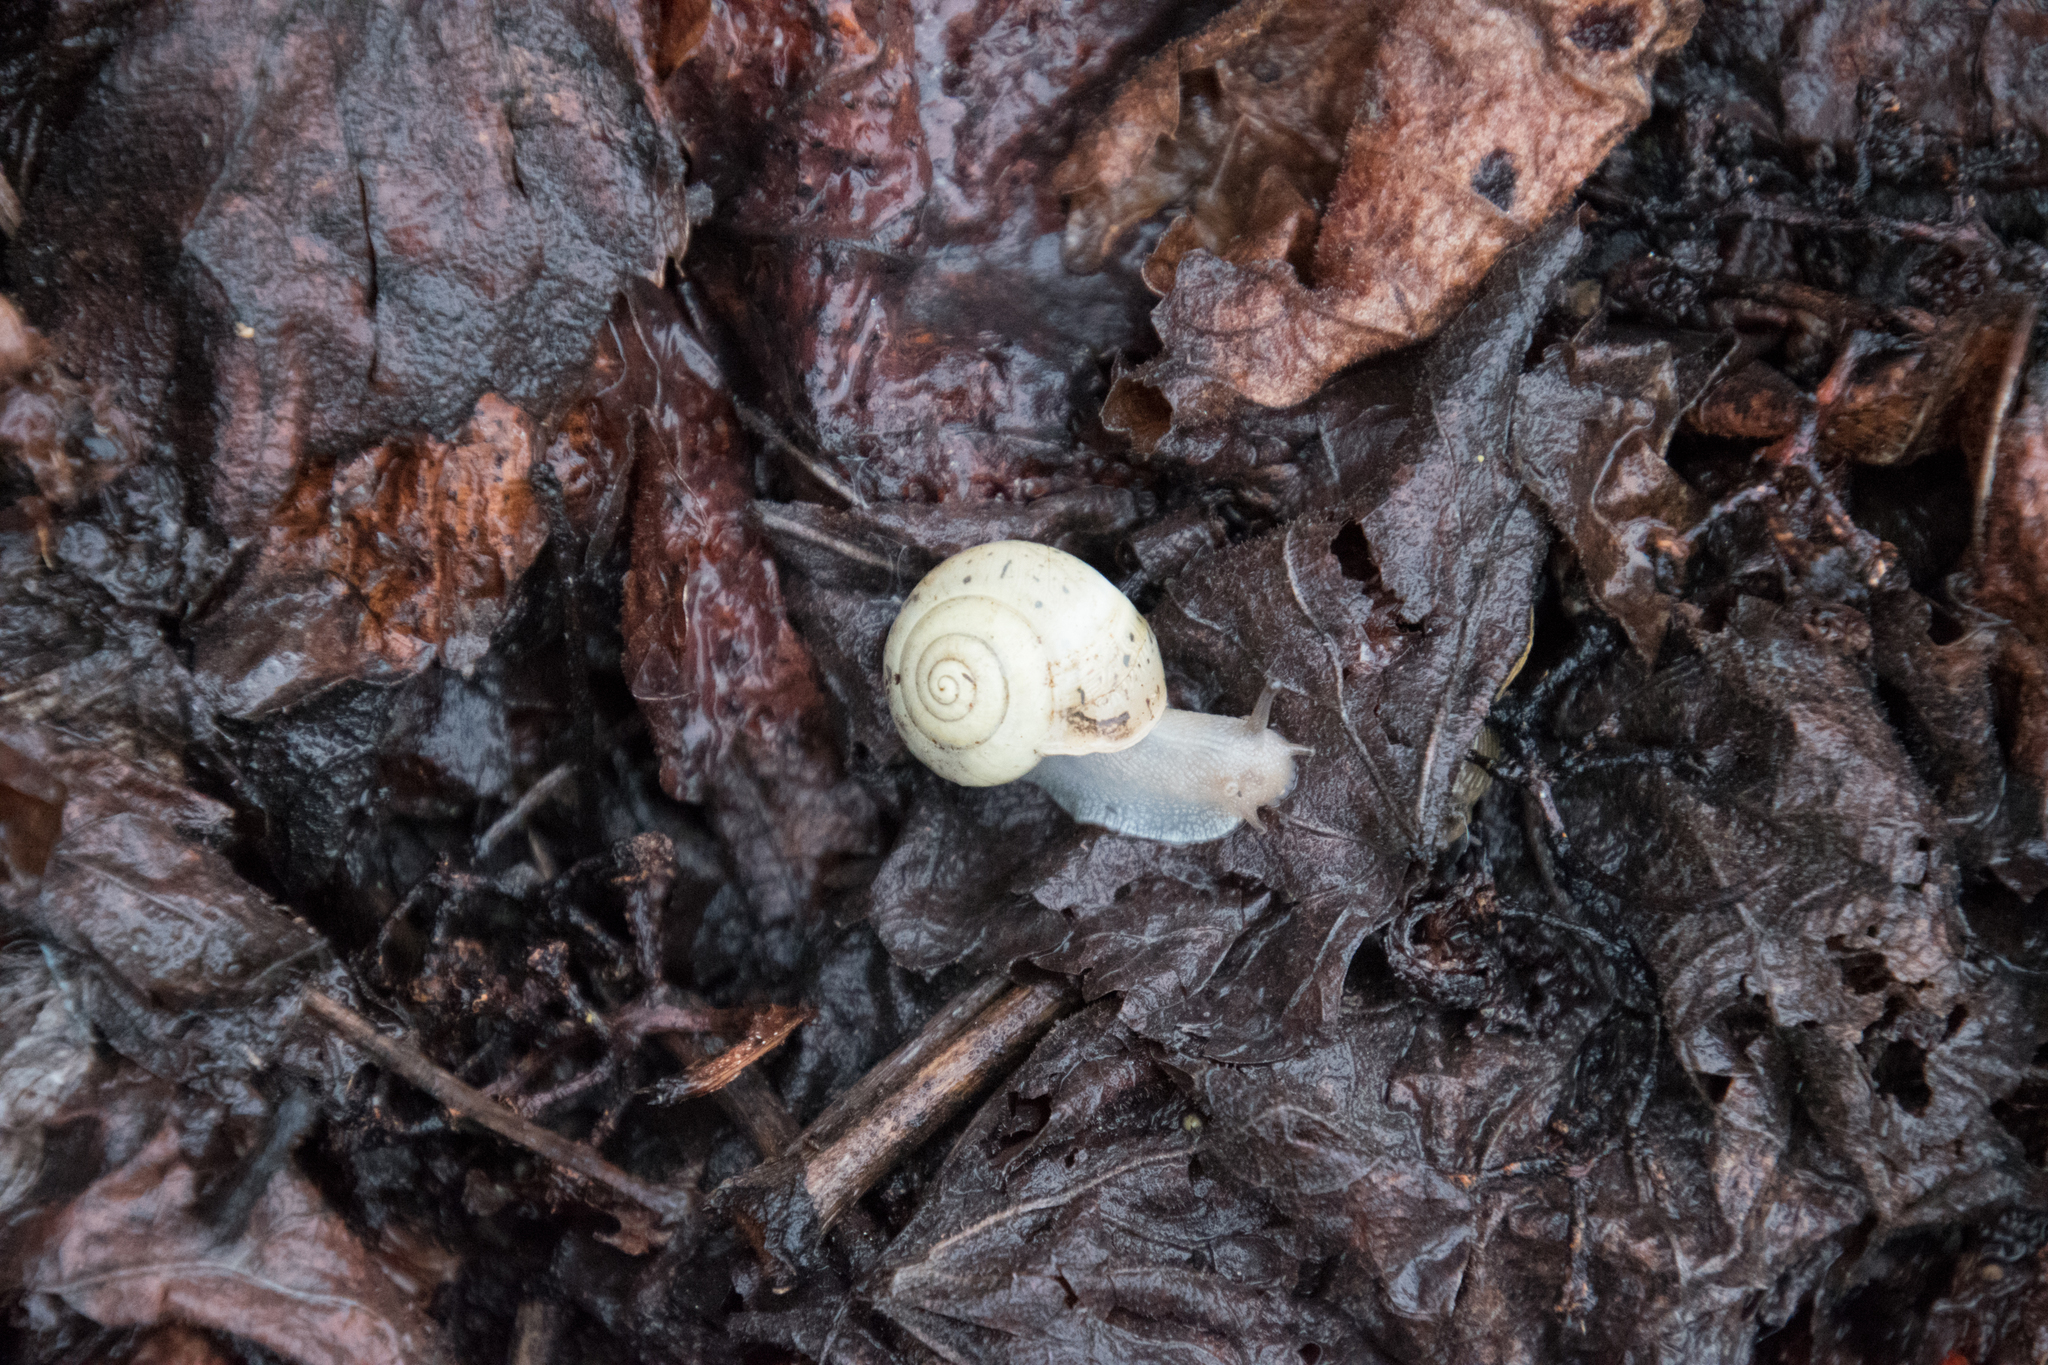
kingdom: Animalia
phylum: Mollusca
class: Gastropoda
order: Stylommatophora
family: Camaenidae
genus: Fruticicola
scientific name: Fruticicola fruticum
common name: Bush snail
